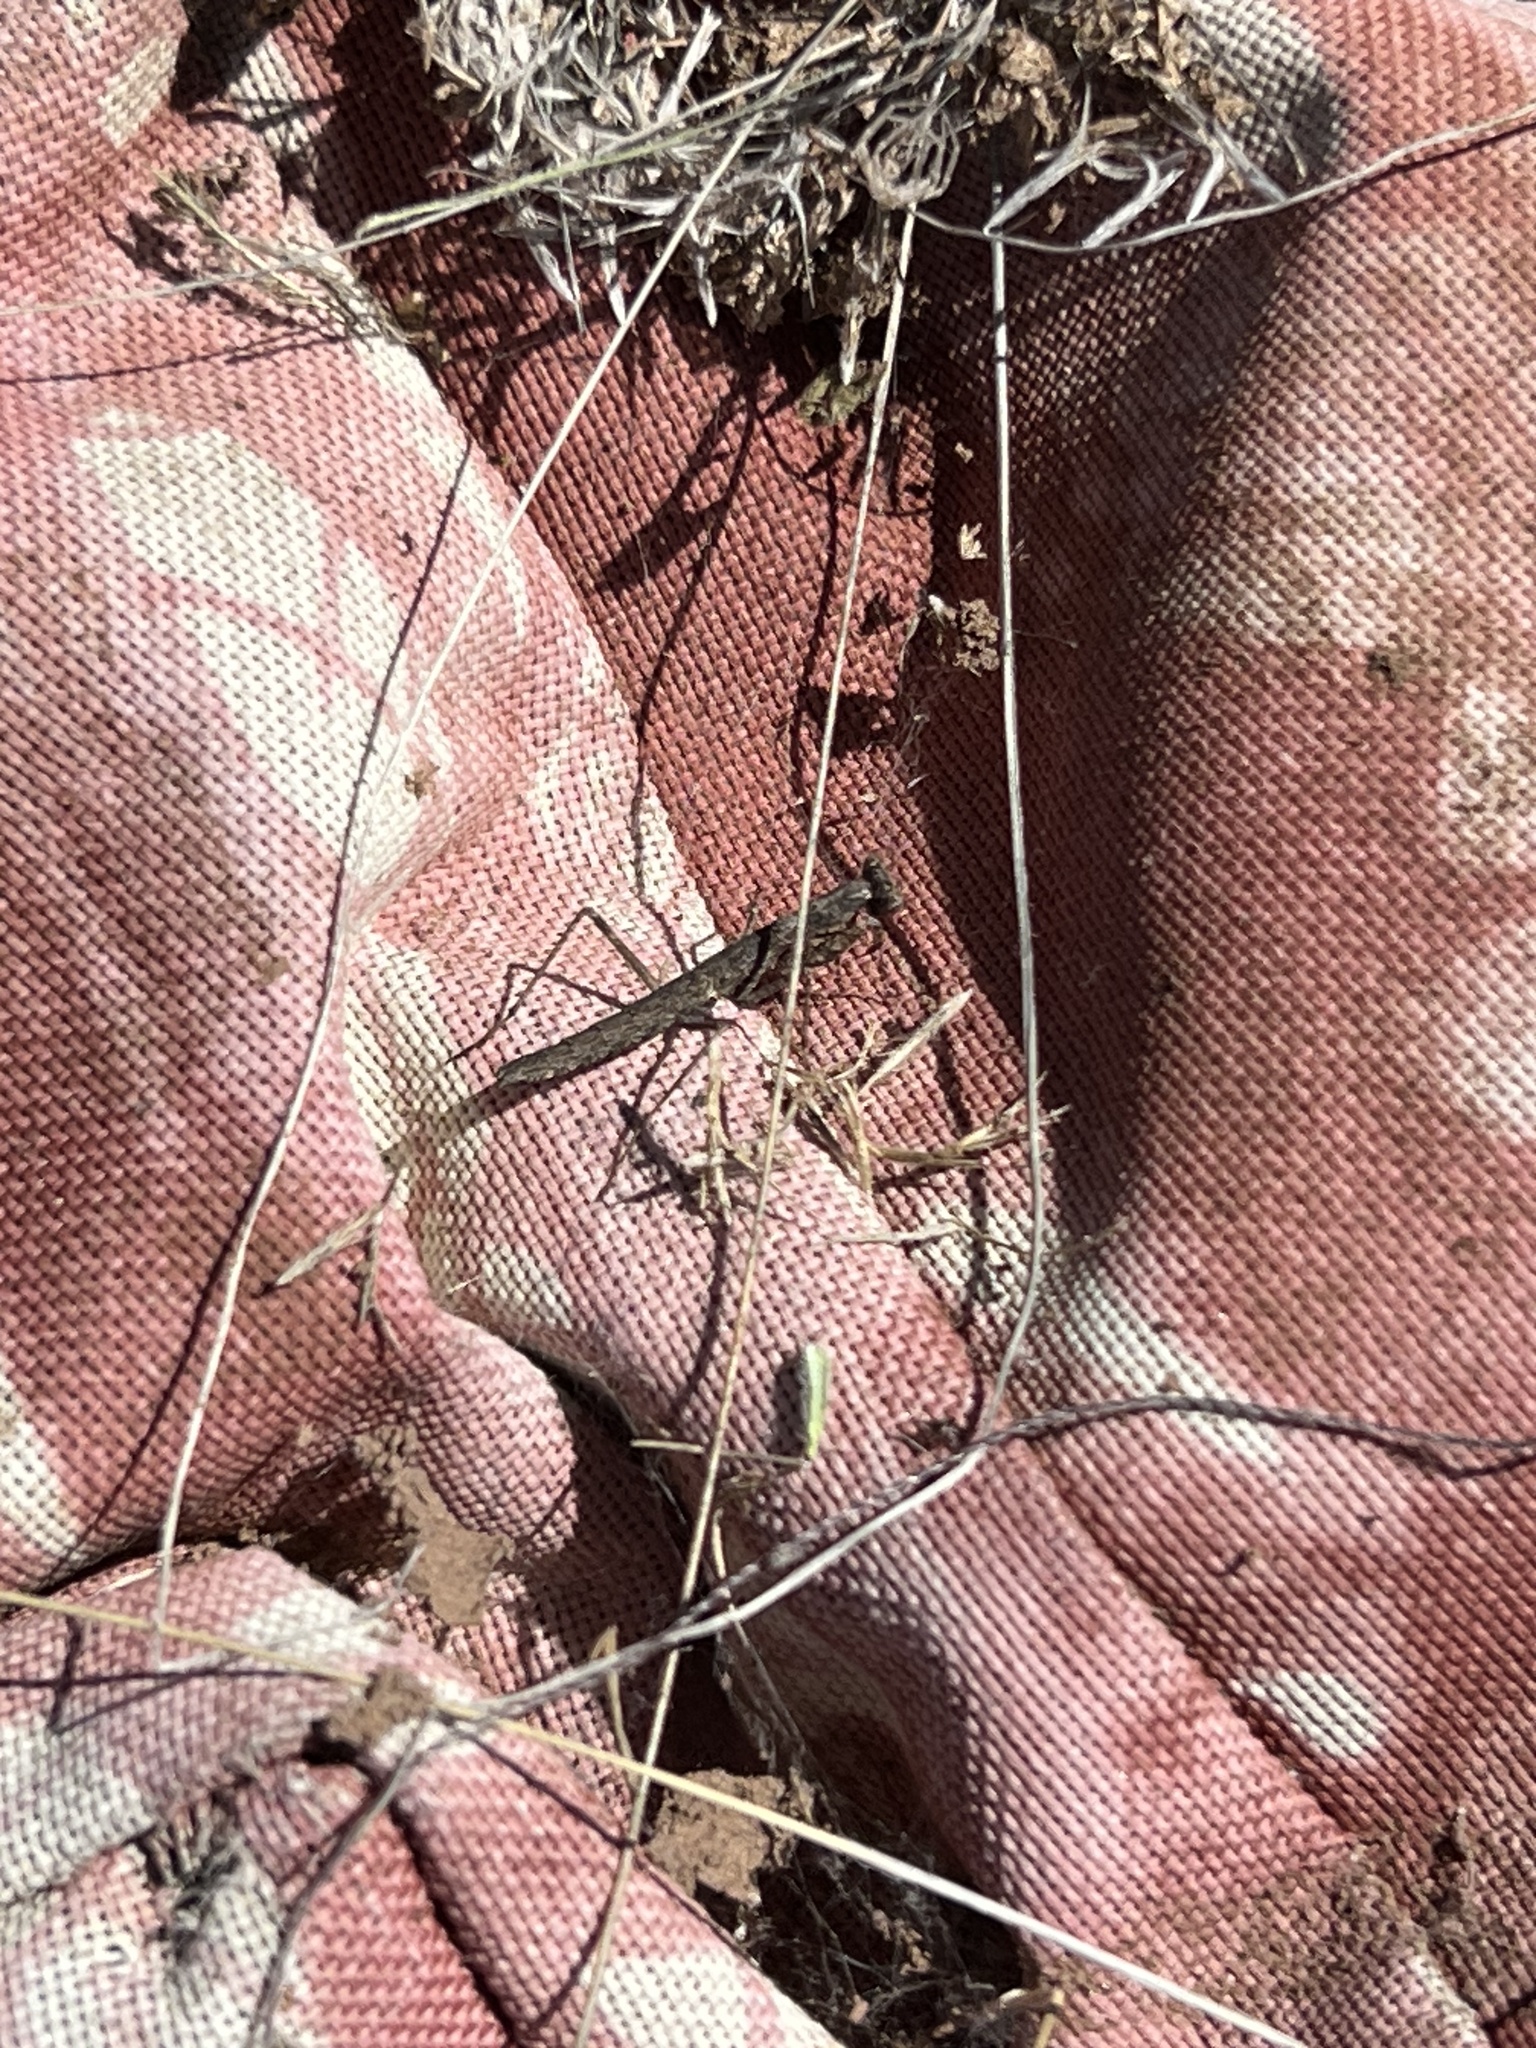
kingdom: Animalia
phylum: Arthropoda
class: Insecta
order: Mantodea
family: Amelidae
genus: Litaneutria
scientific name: Litaneutria ocularis
